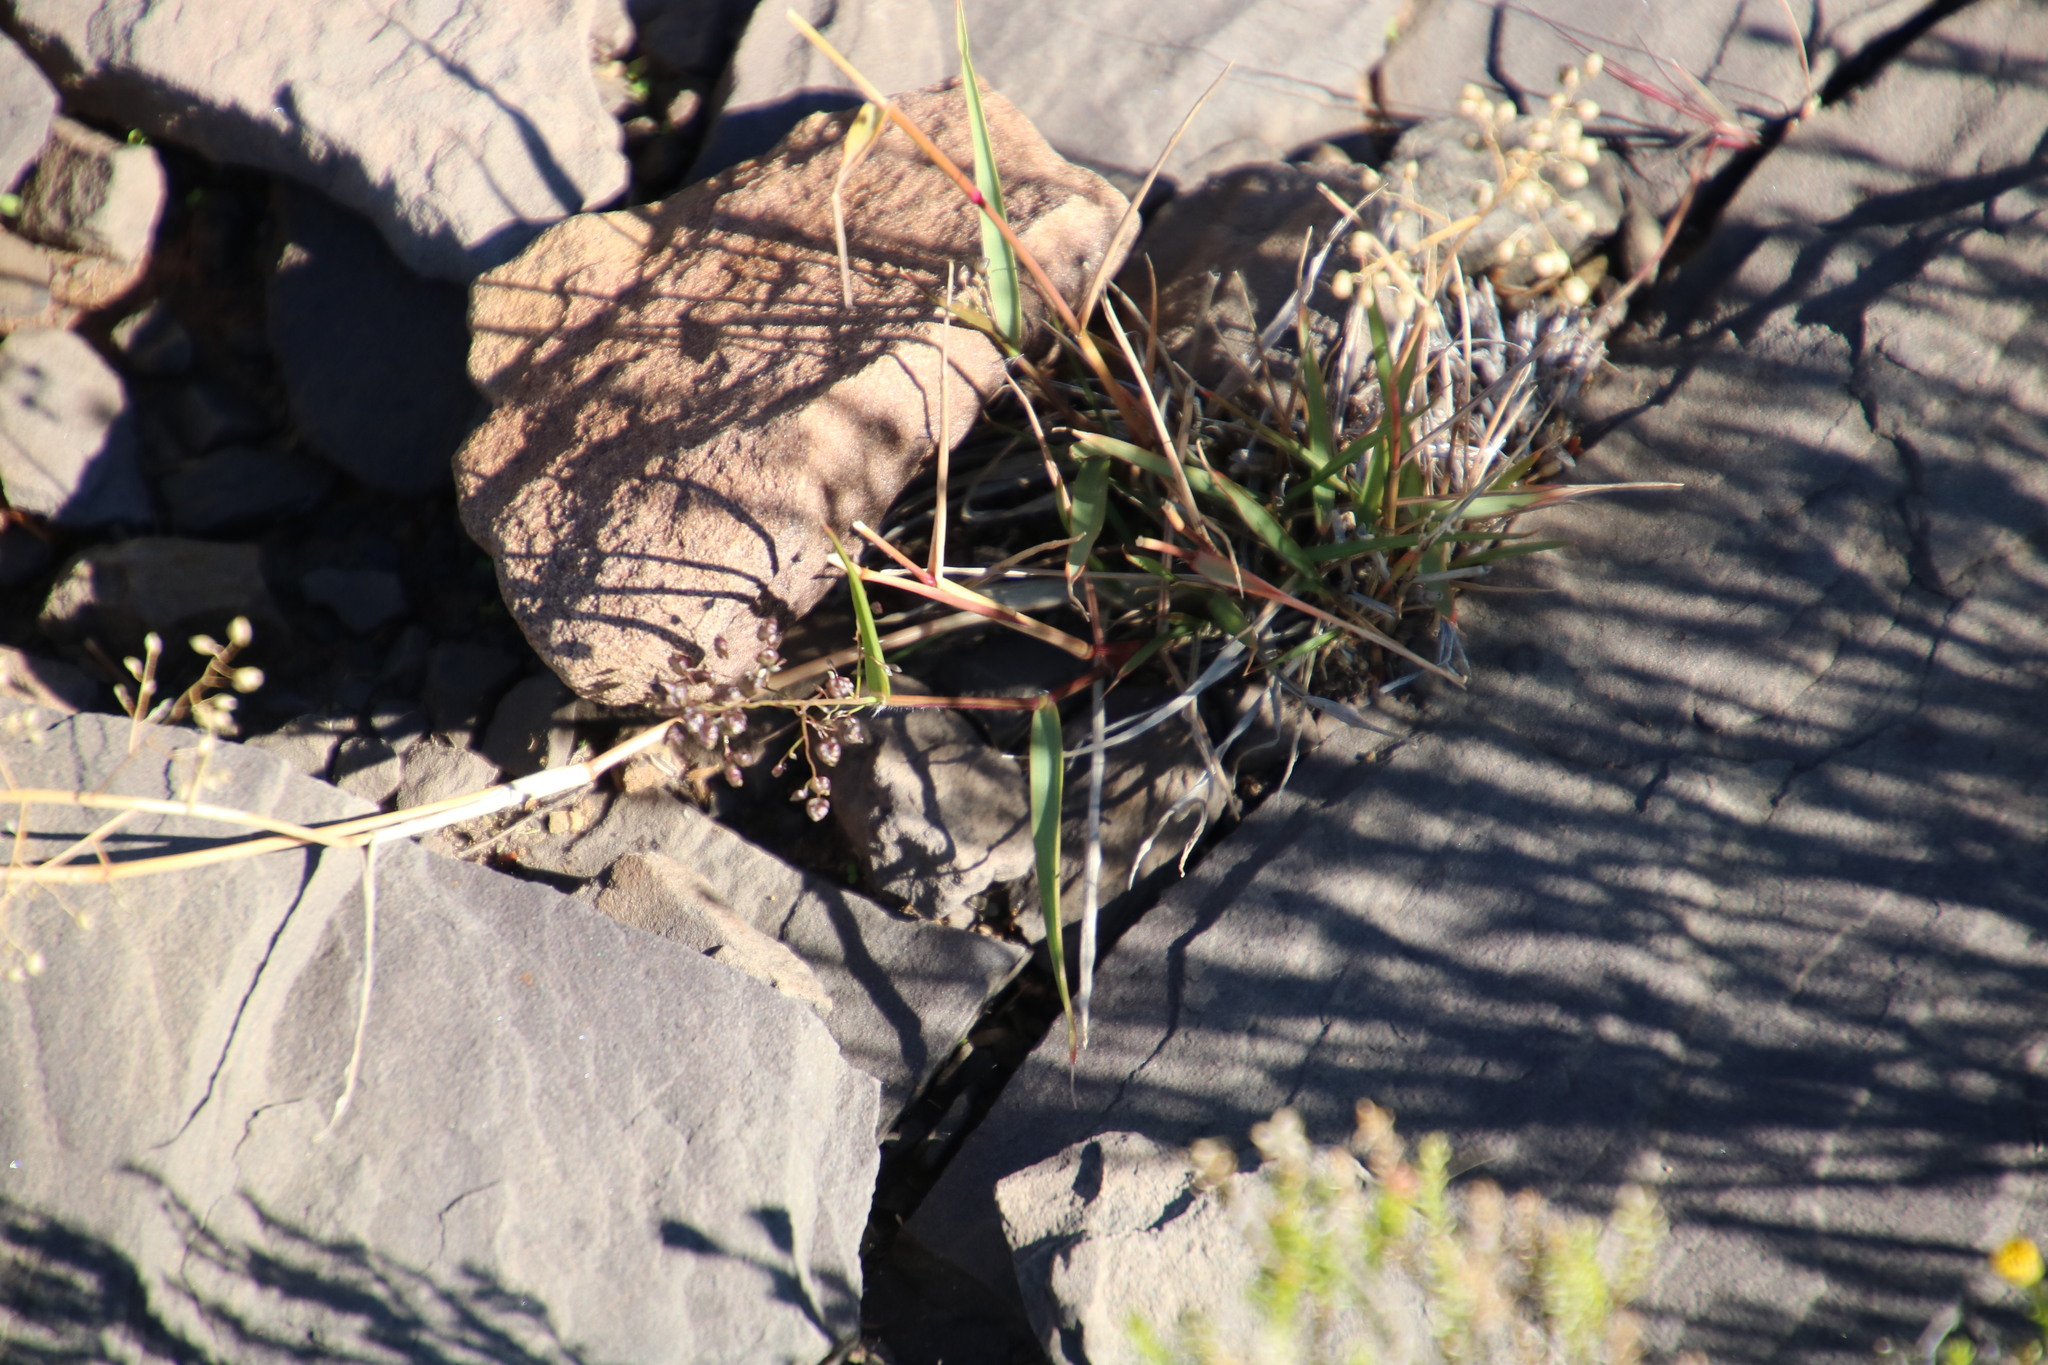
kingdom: Plantae
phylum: Tracheophyta
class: Liliopsida
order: Poales
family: Poaceae
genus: Eragrostis
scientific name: Eragrostis obtusa
